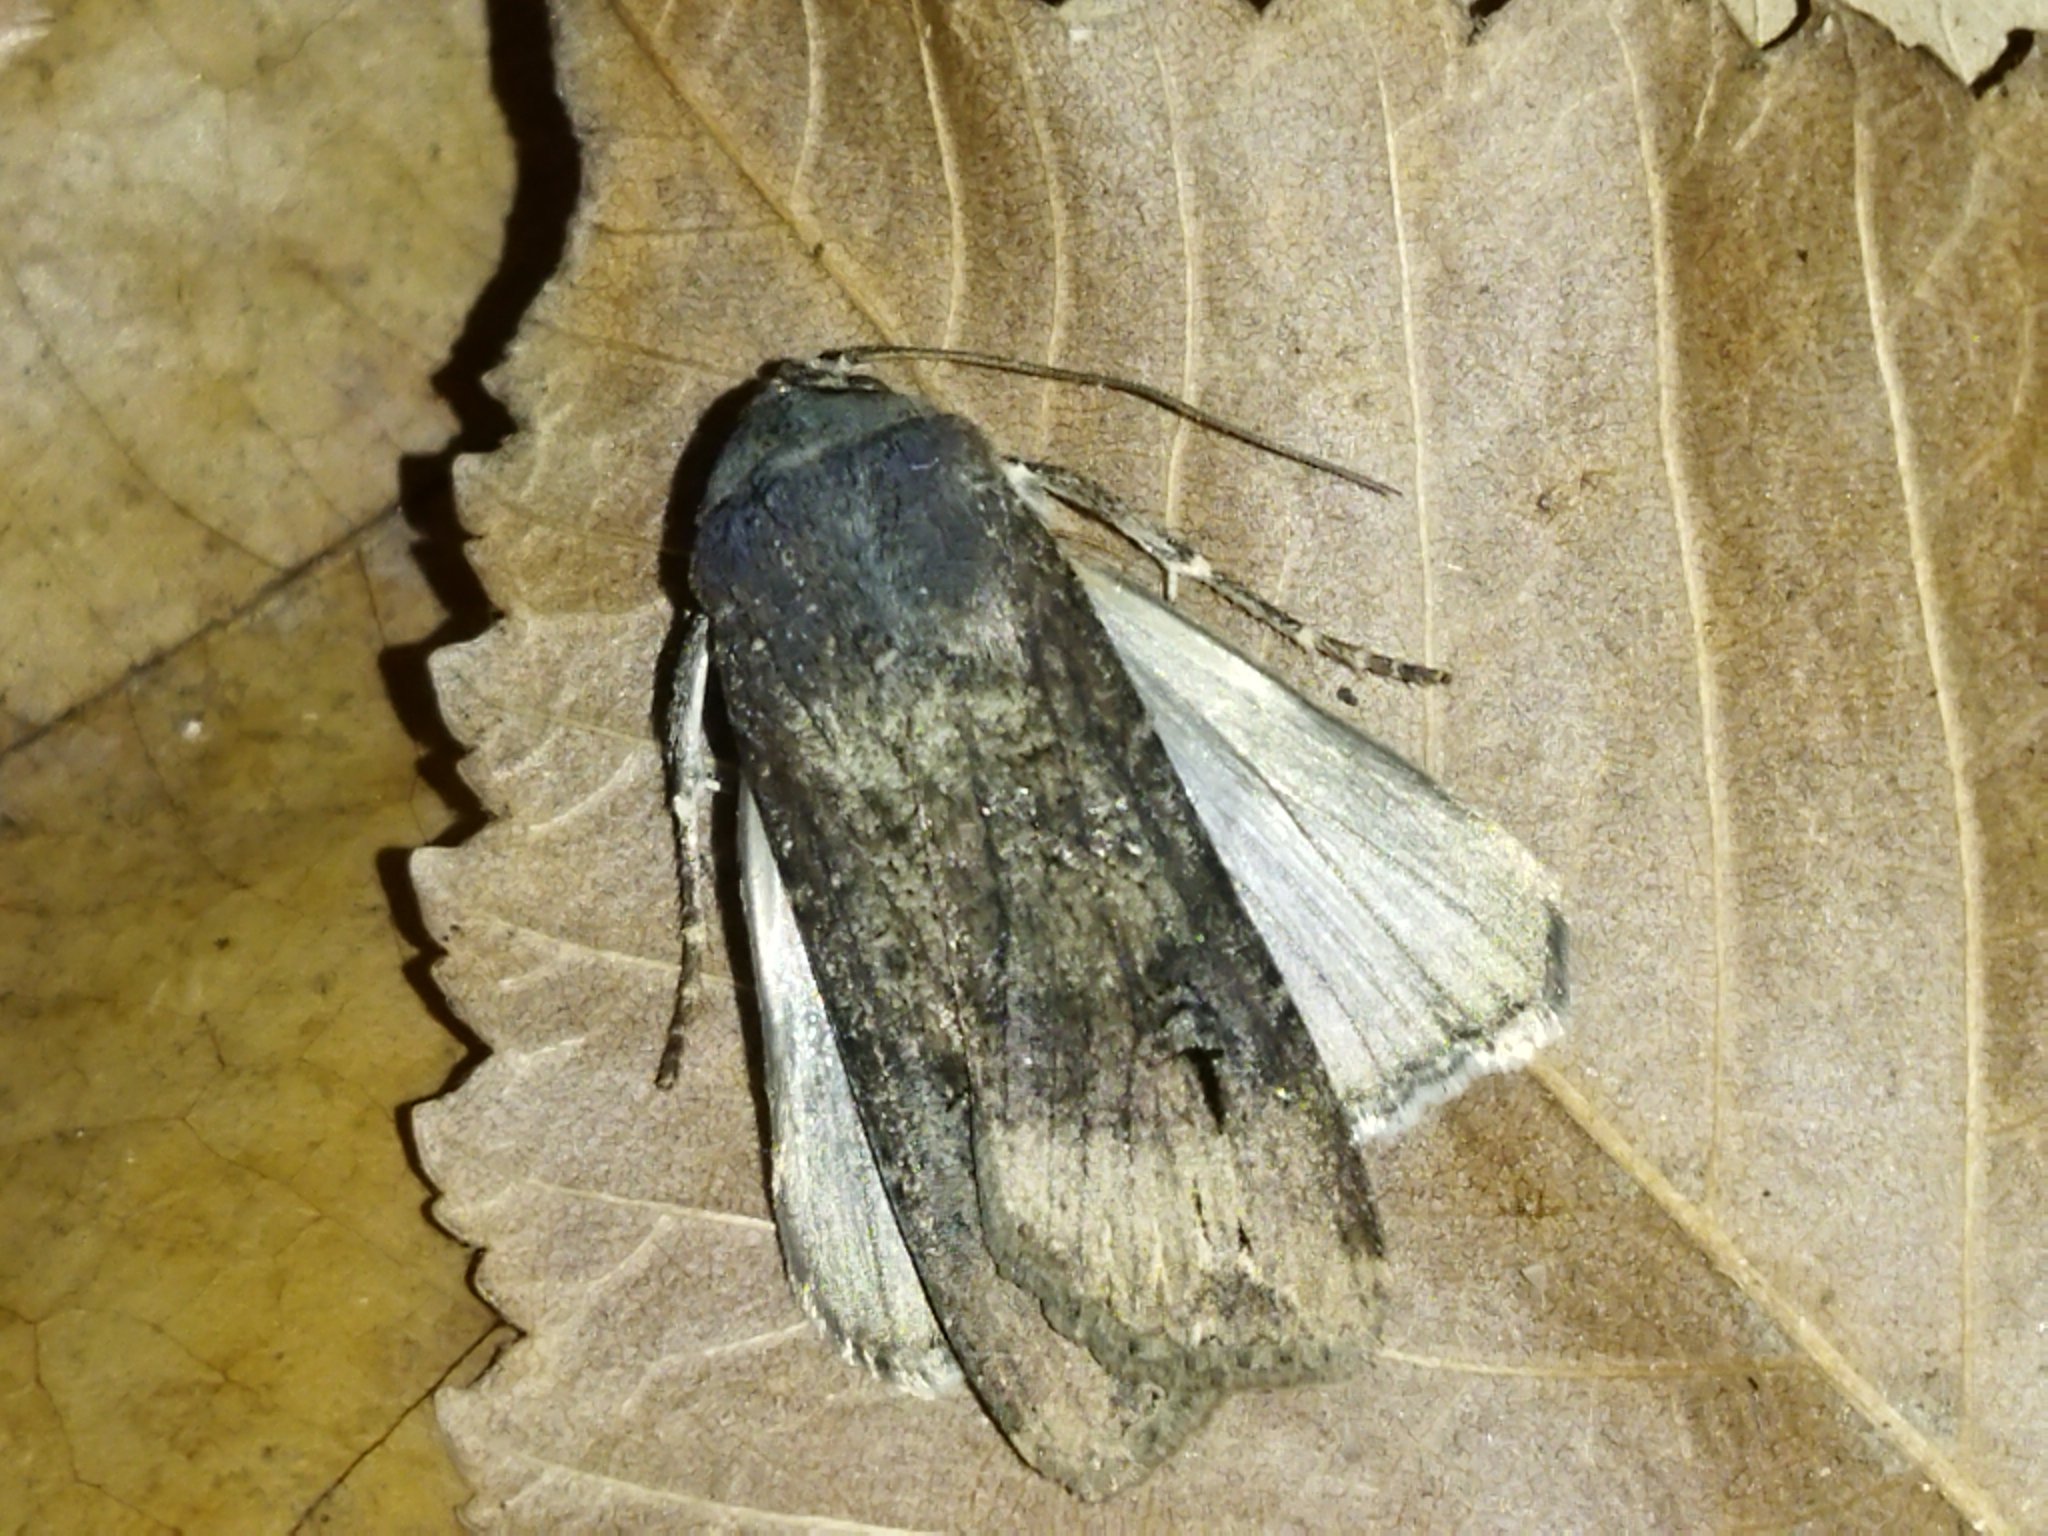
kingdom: Animalia
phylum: Arthropoda
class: Insecta
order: Lepidoptera
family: Noctuidae
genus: Agrotis
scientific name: Agrotis ipsilon
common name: Dark sword-grass
